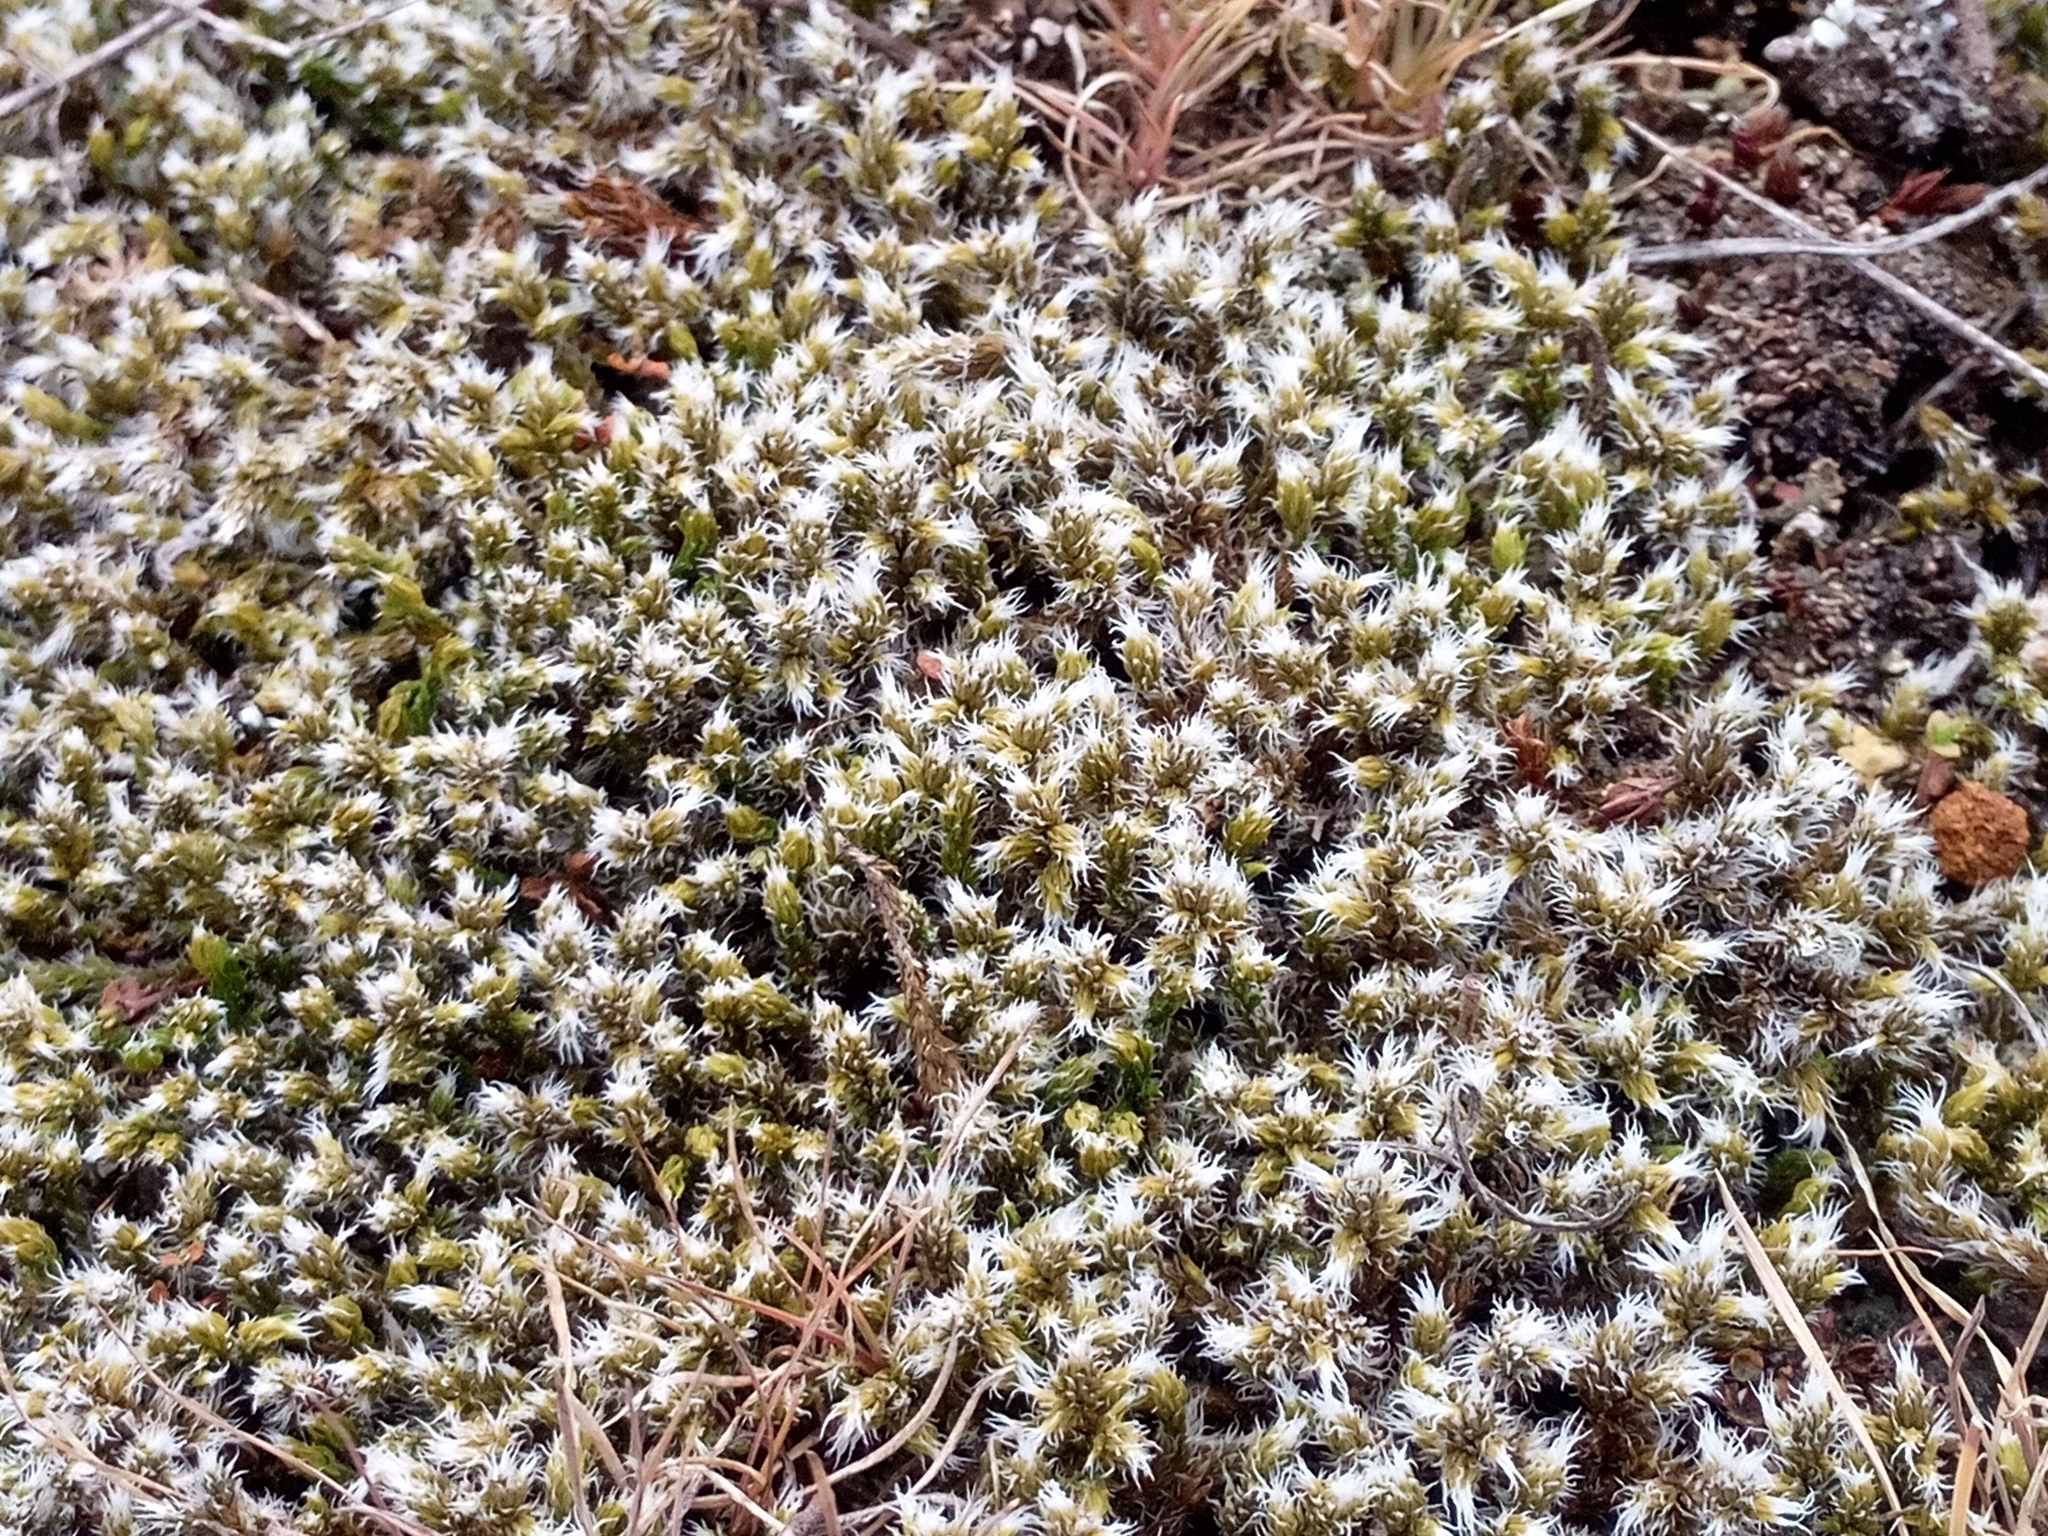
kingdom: Plantae
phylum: Bryophyta
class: Bryopsida
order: Grimmiales
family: Grimmiaceae
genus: Racomitrium
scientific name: Racomitrium lanuginosum
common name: Hoary rock moss
